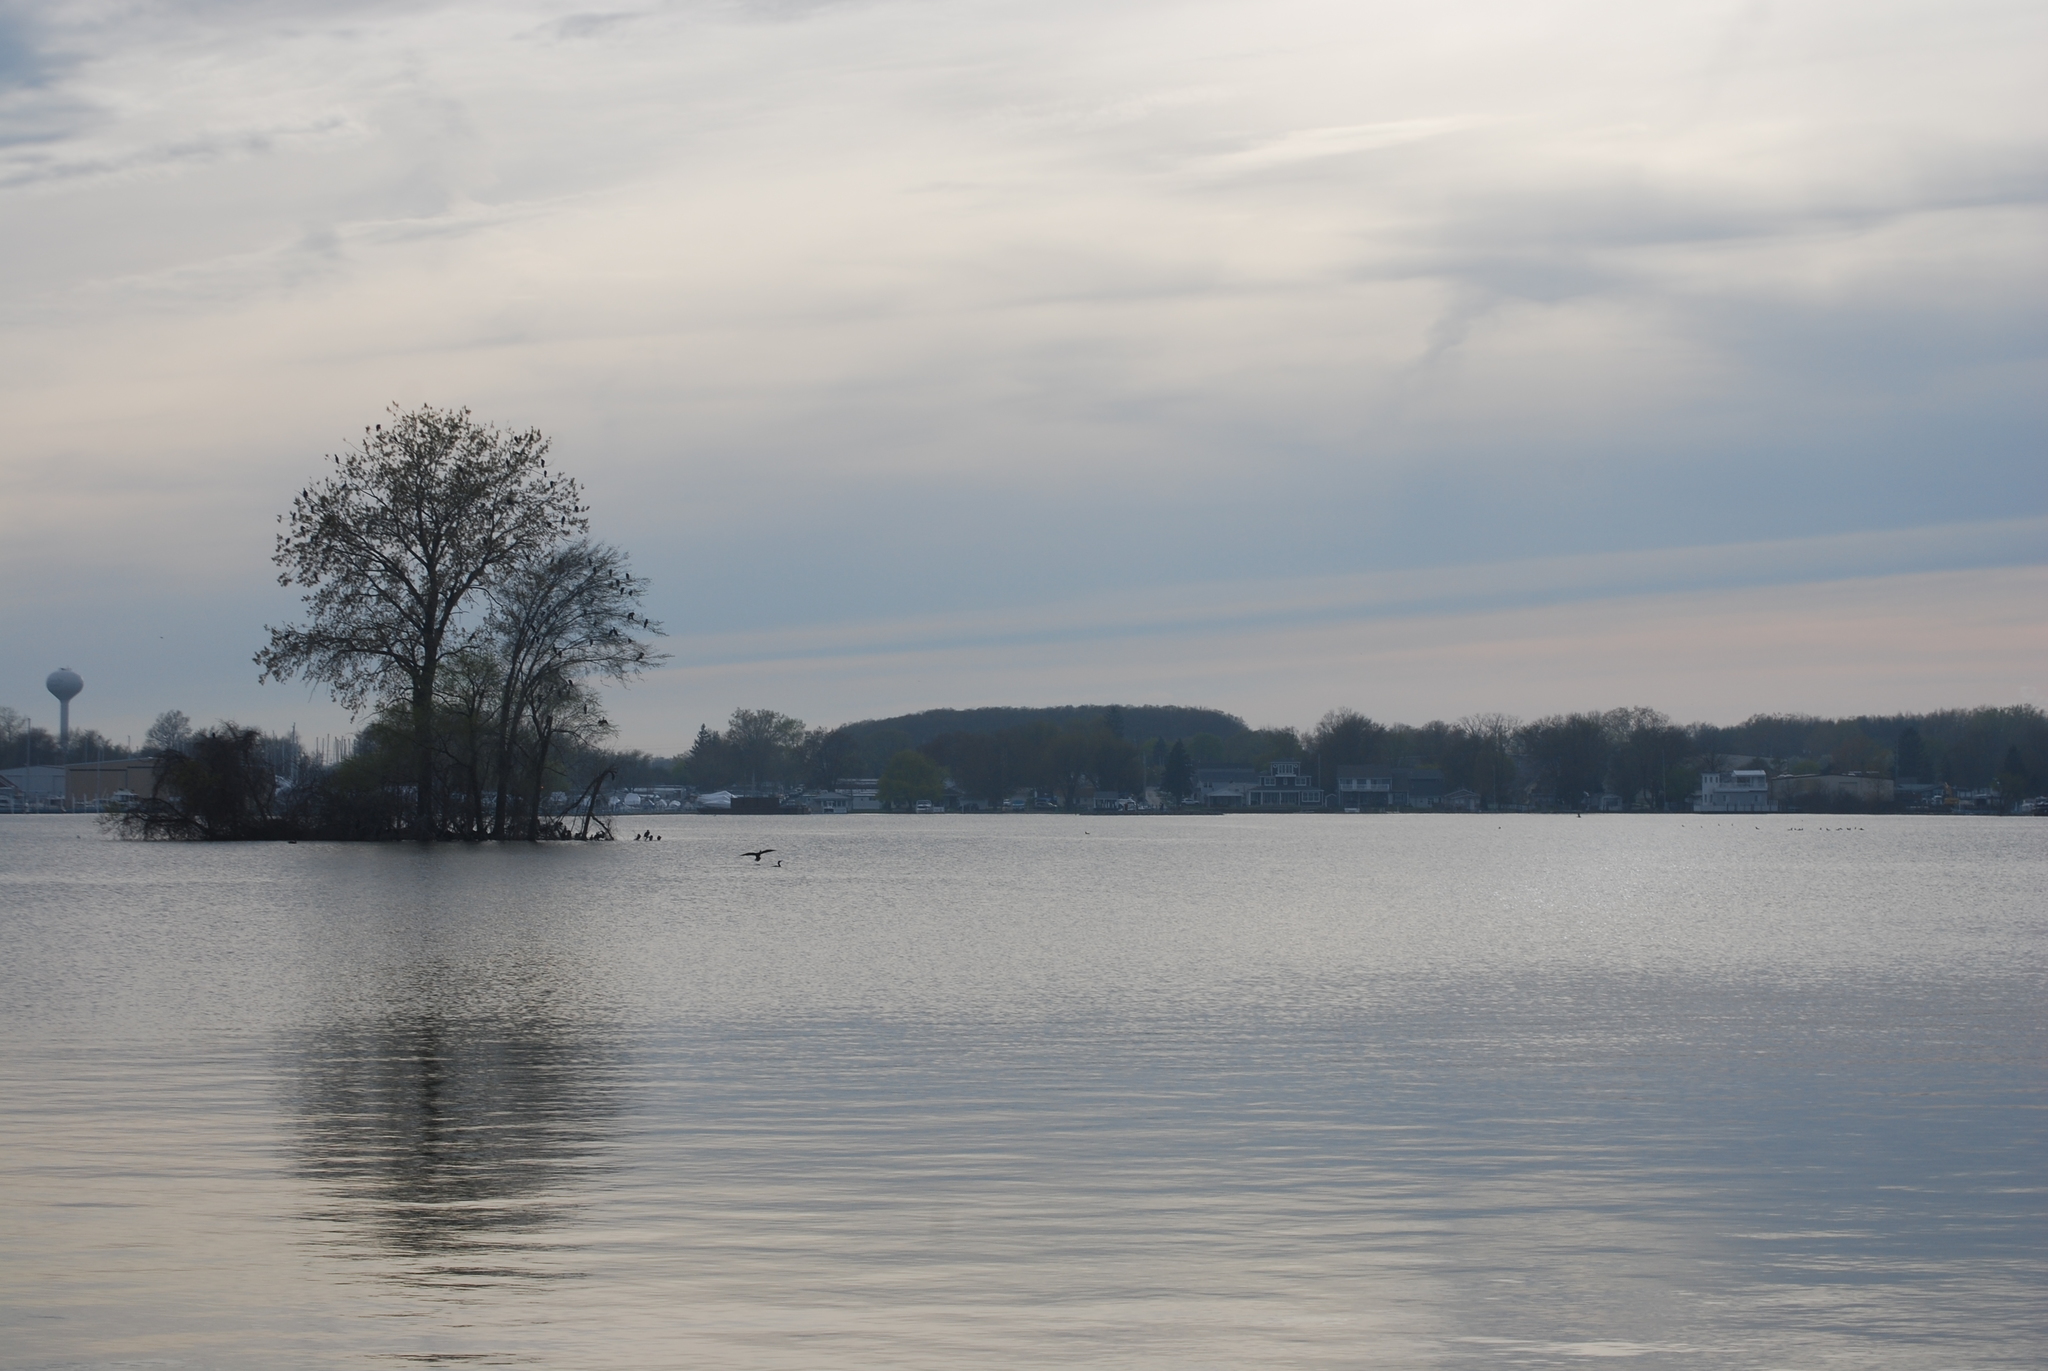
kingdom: Animalia
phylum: Chordata
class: Aves
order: Suliformes
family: Phalacrocoracidae
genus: Phalacrocorax
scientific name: Phalacrocorax auritus
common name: Double-crested cormorant
